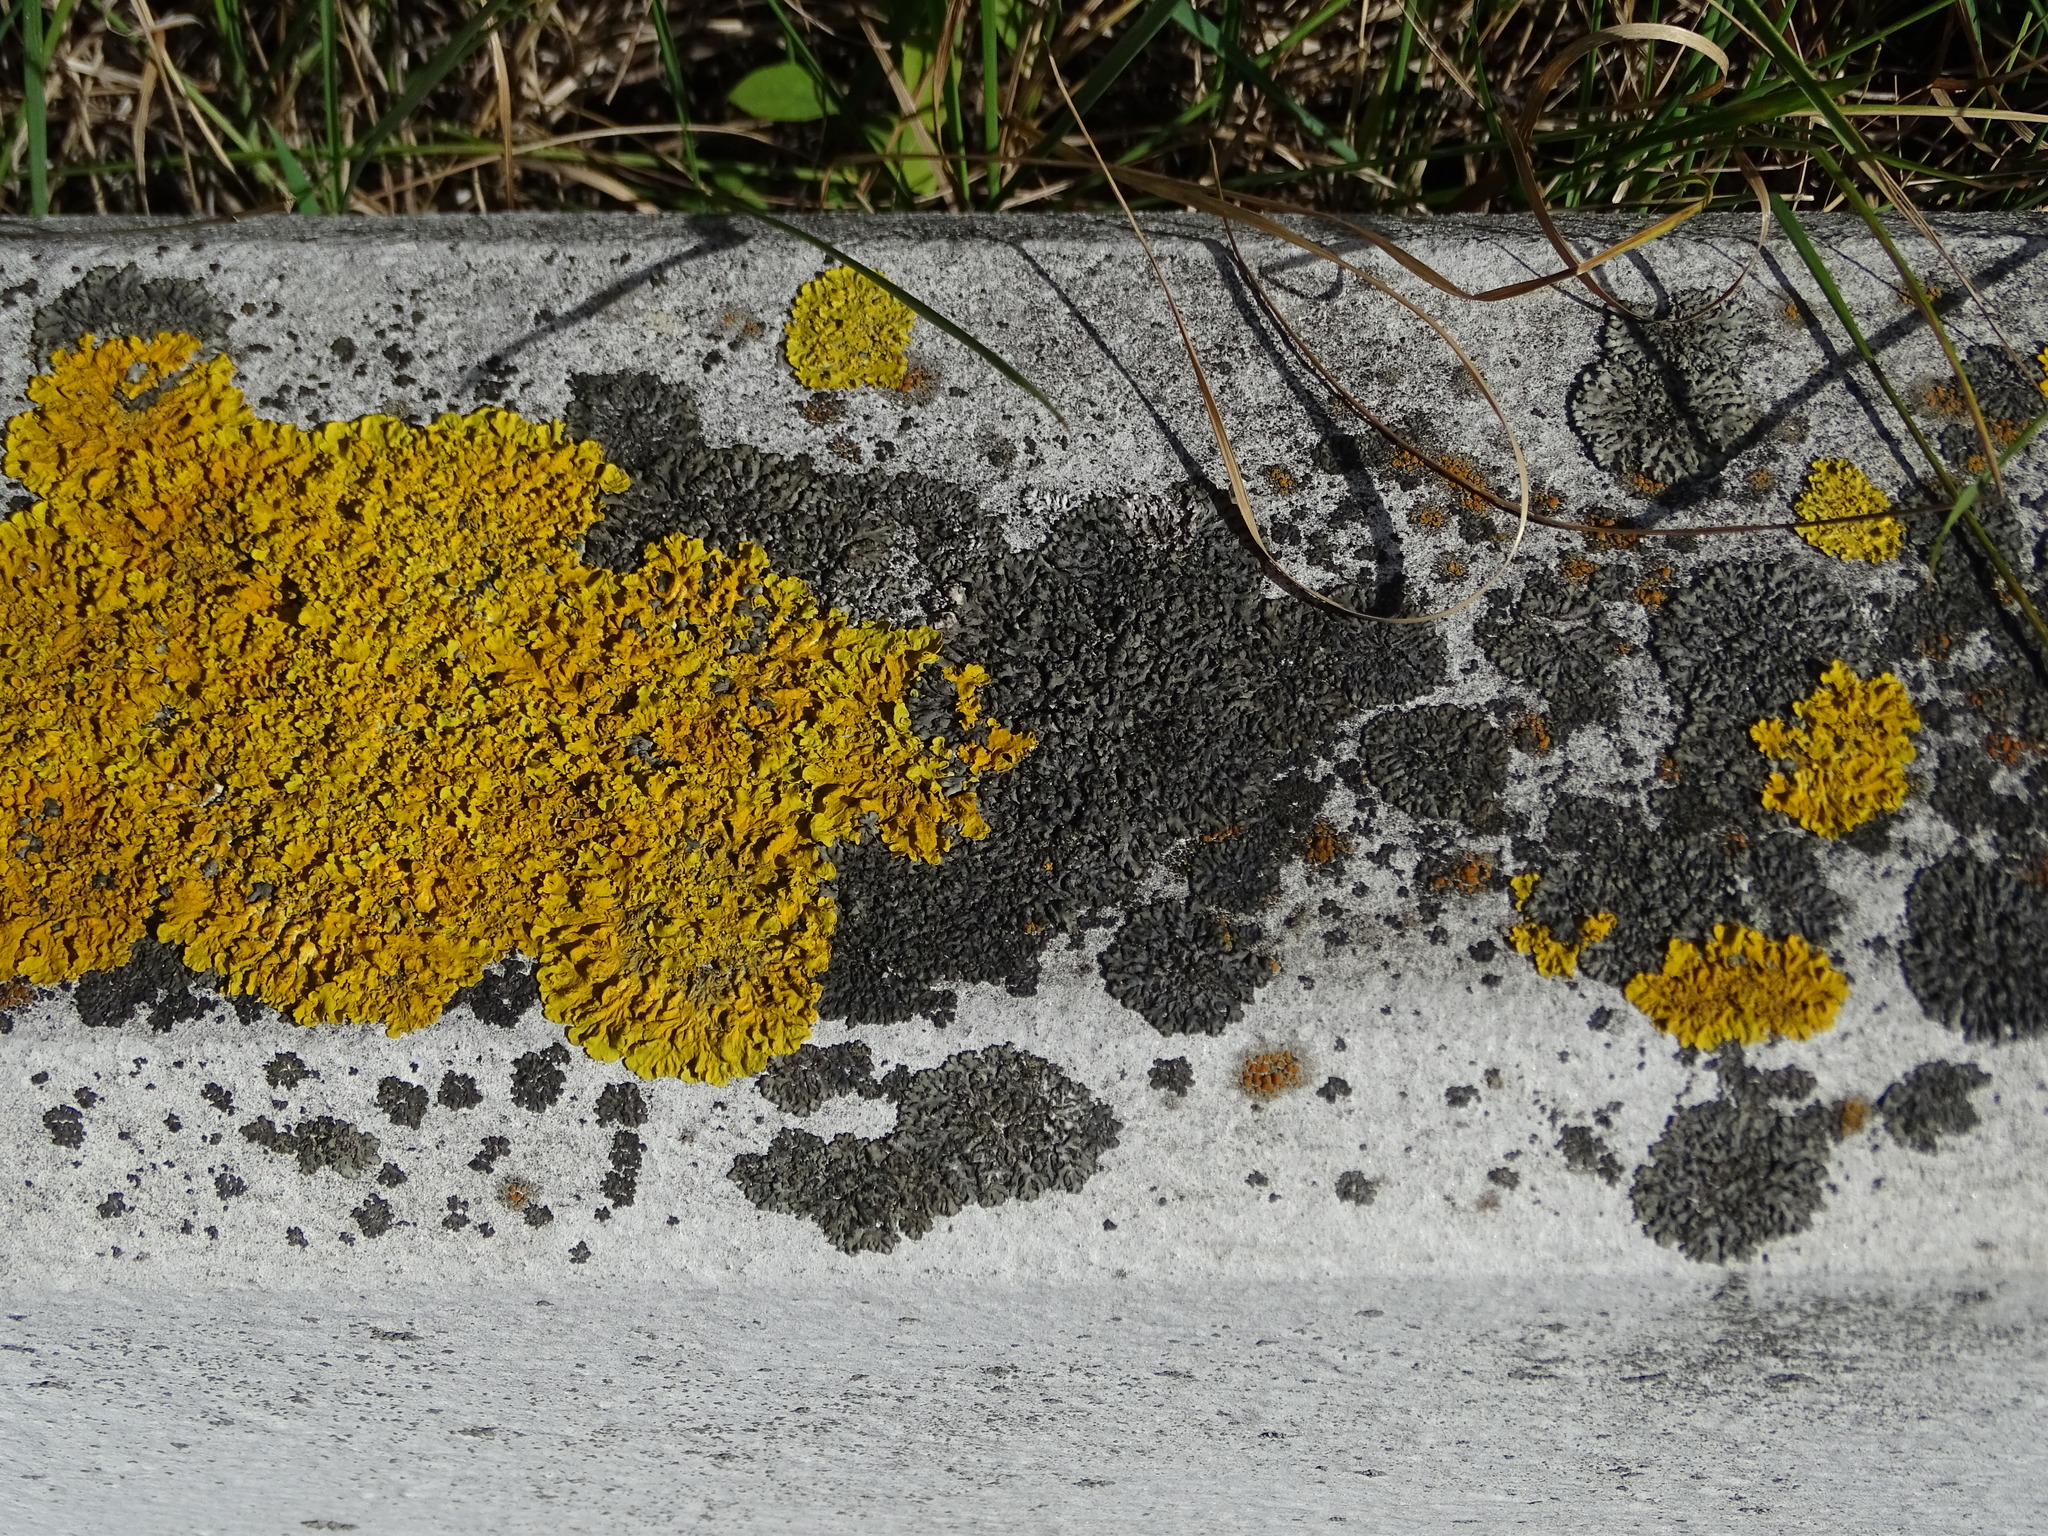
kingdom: Fungi
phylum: Ascomycota
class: Lecanoromycetes
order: Caliciales
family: Physciaceae
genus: Phaeophyscia
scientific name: Phaeophyscia orbicularis
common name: Mealy shadow lichen
